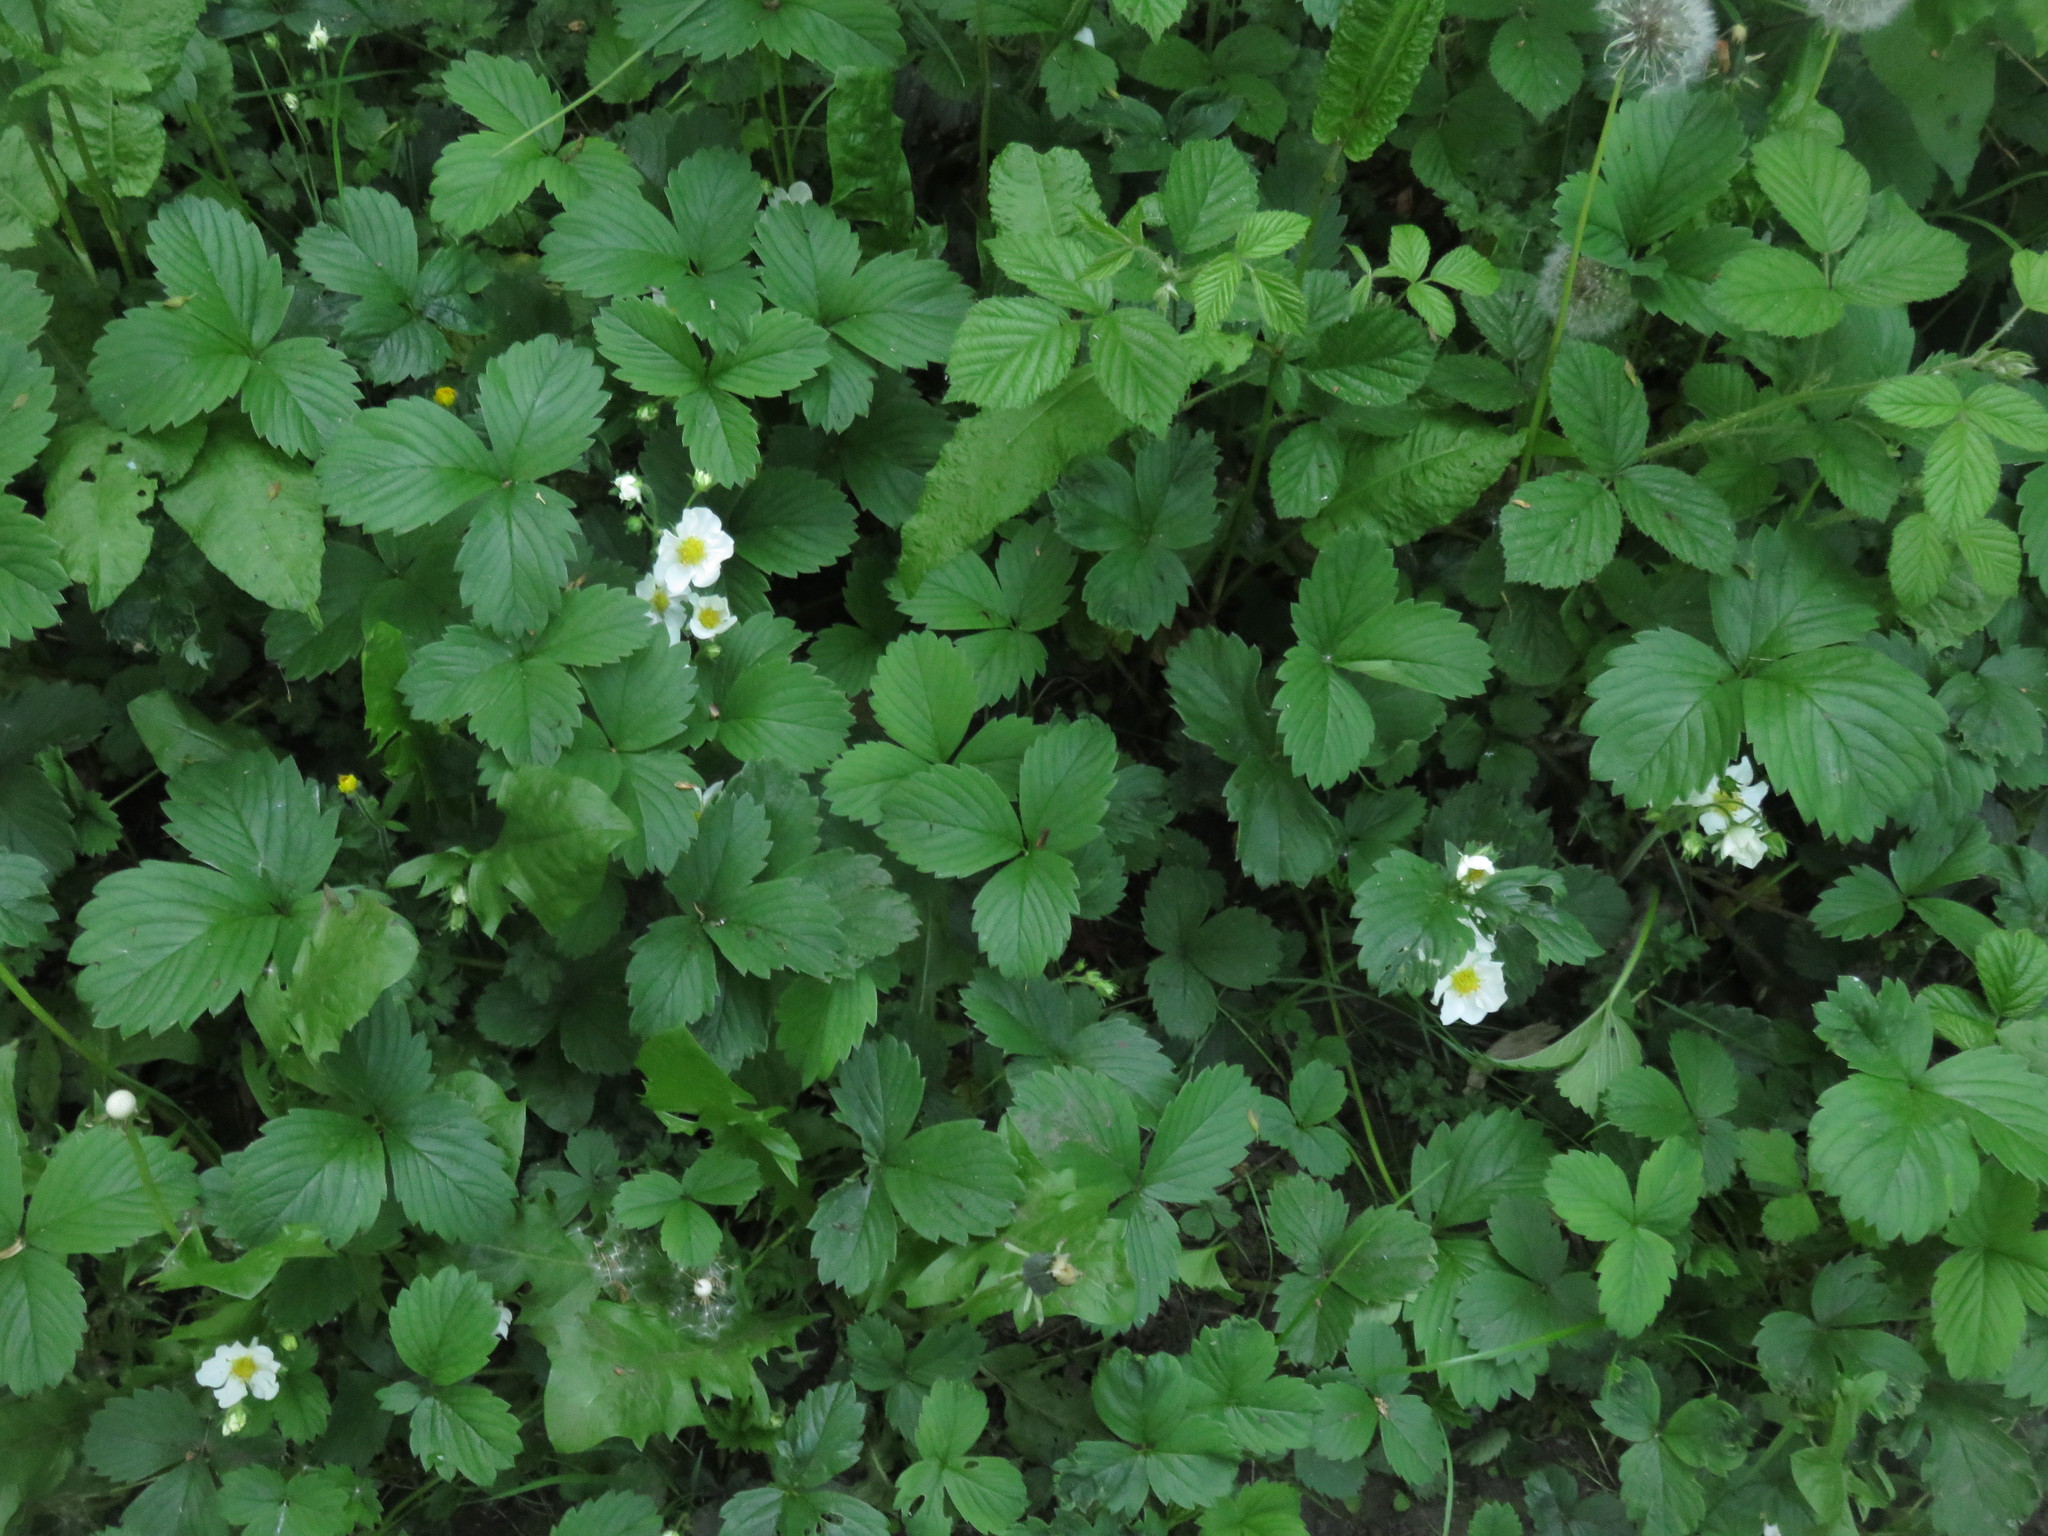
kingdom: Plantae
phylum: Tracheophyta
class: Magnoliopsida
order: Rosales
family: Rosaceae
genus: Fragaria
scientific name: Fragaria vesca
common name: Wild strawberry
